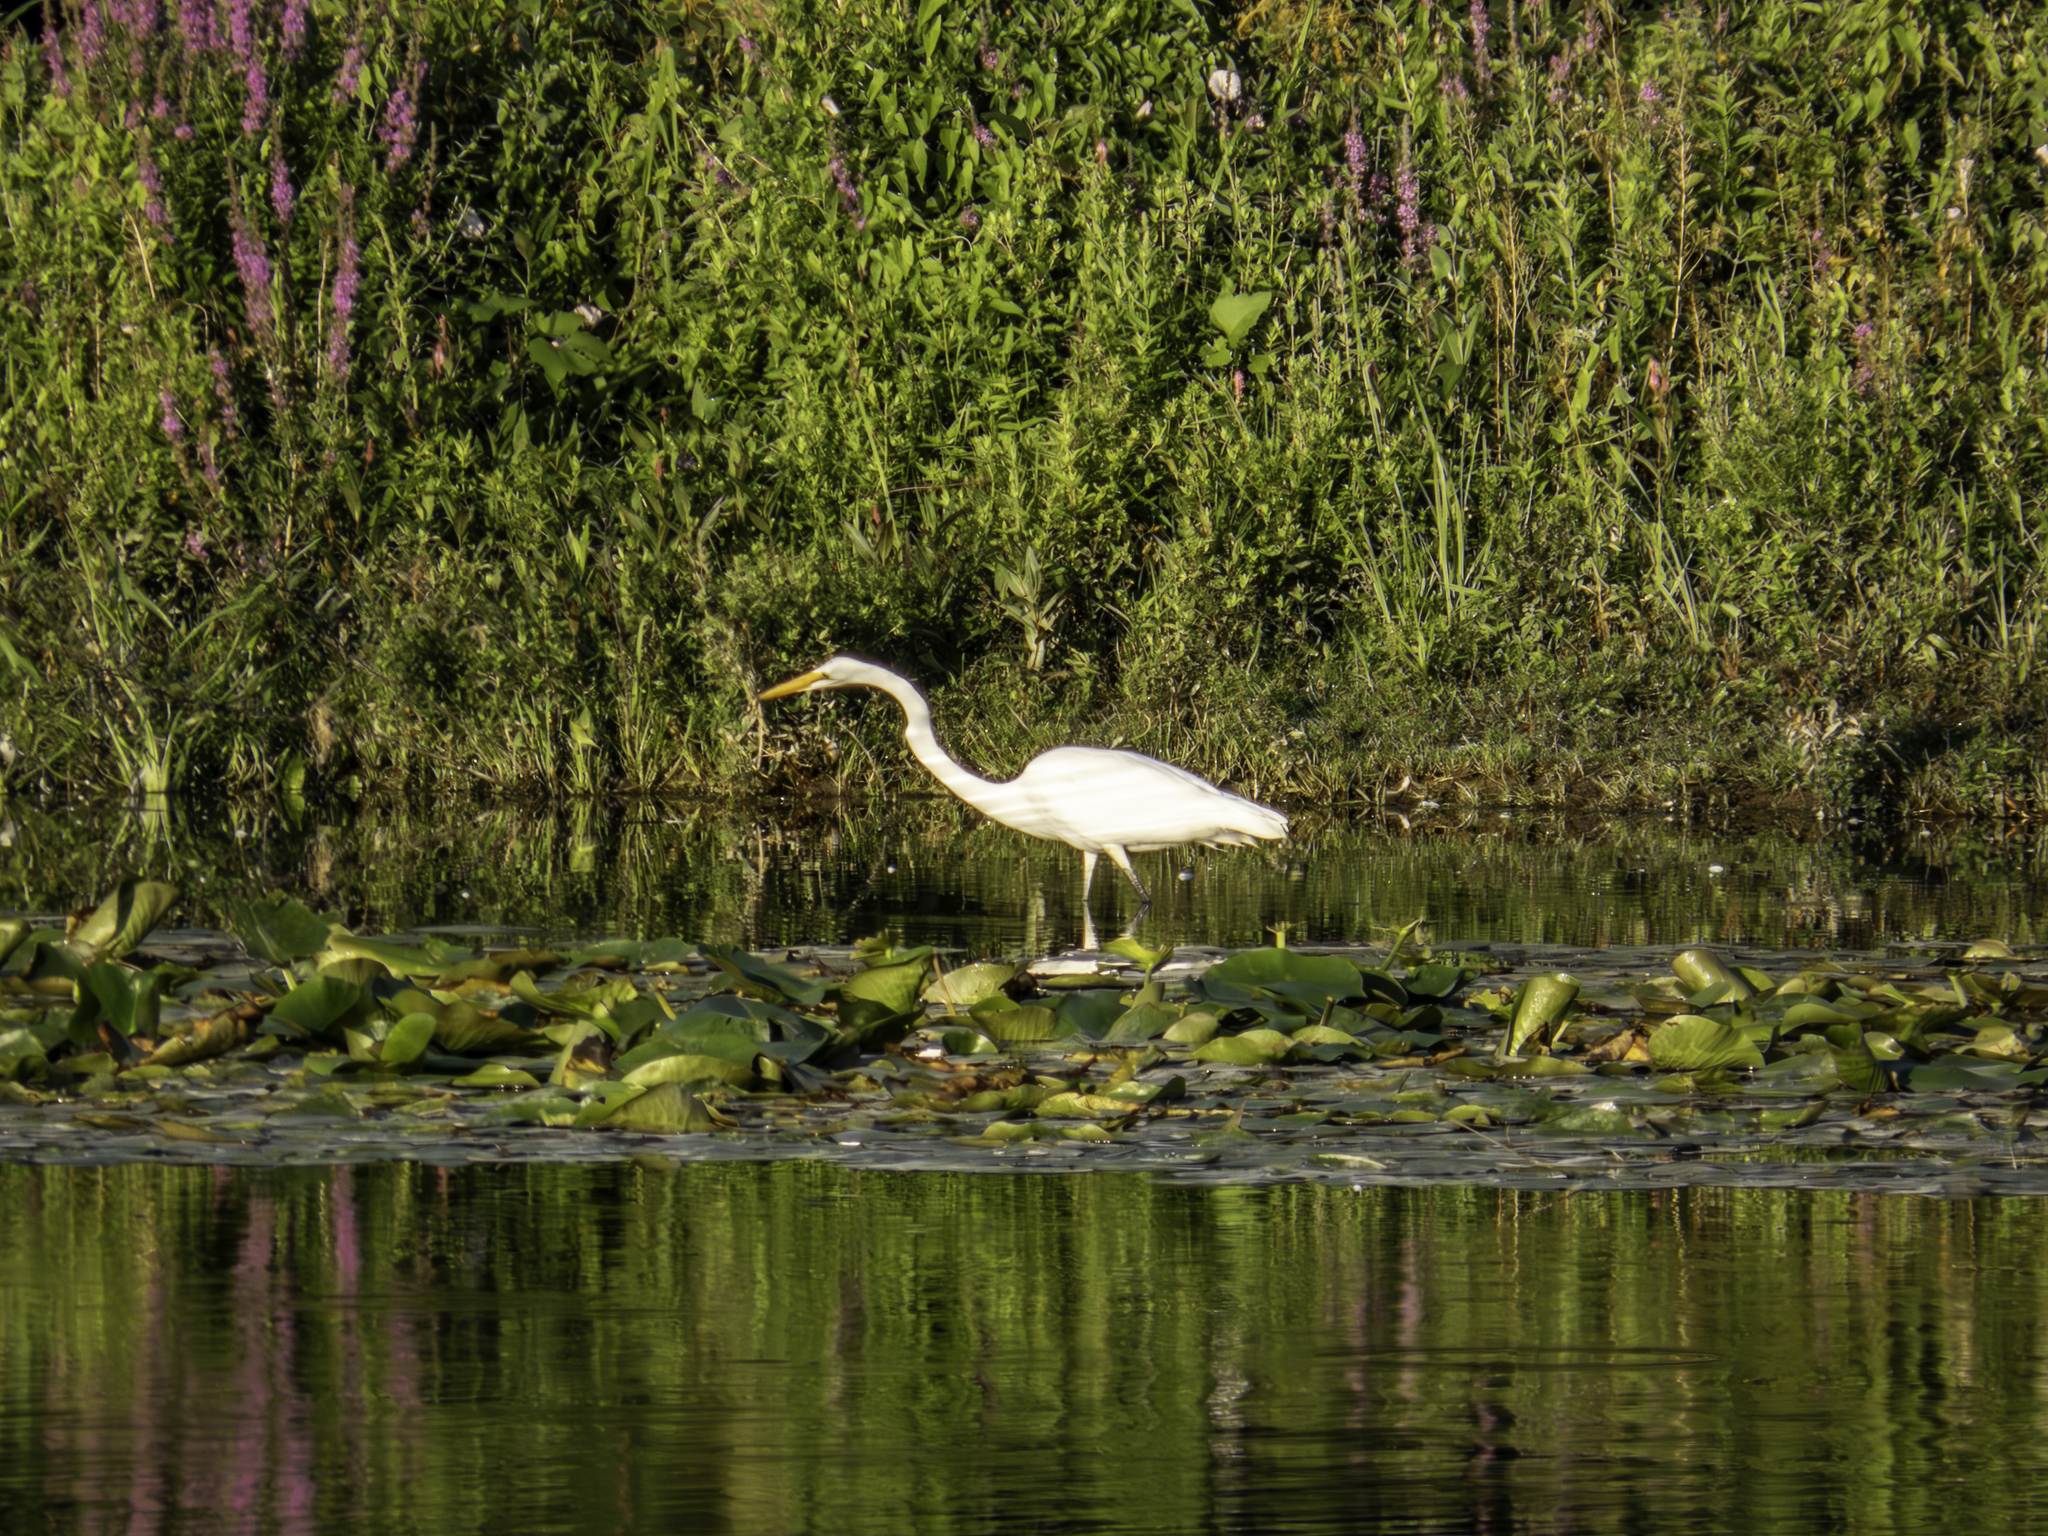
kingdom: Animalia
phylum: Chordata
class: Aves
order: Pelecaniformes
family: Ardeidae
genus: Ardea
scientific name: Ardea alba
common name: Great egret
